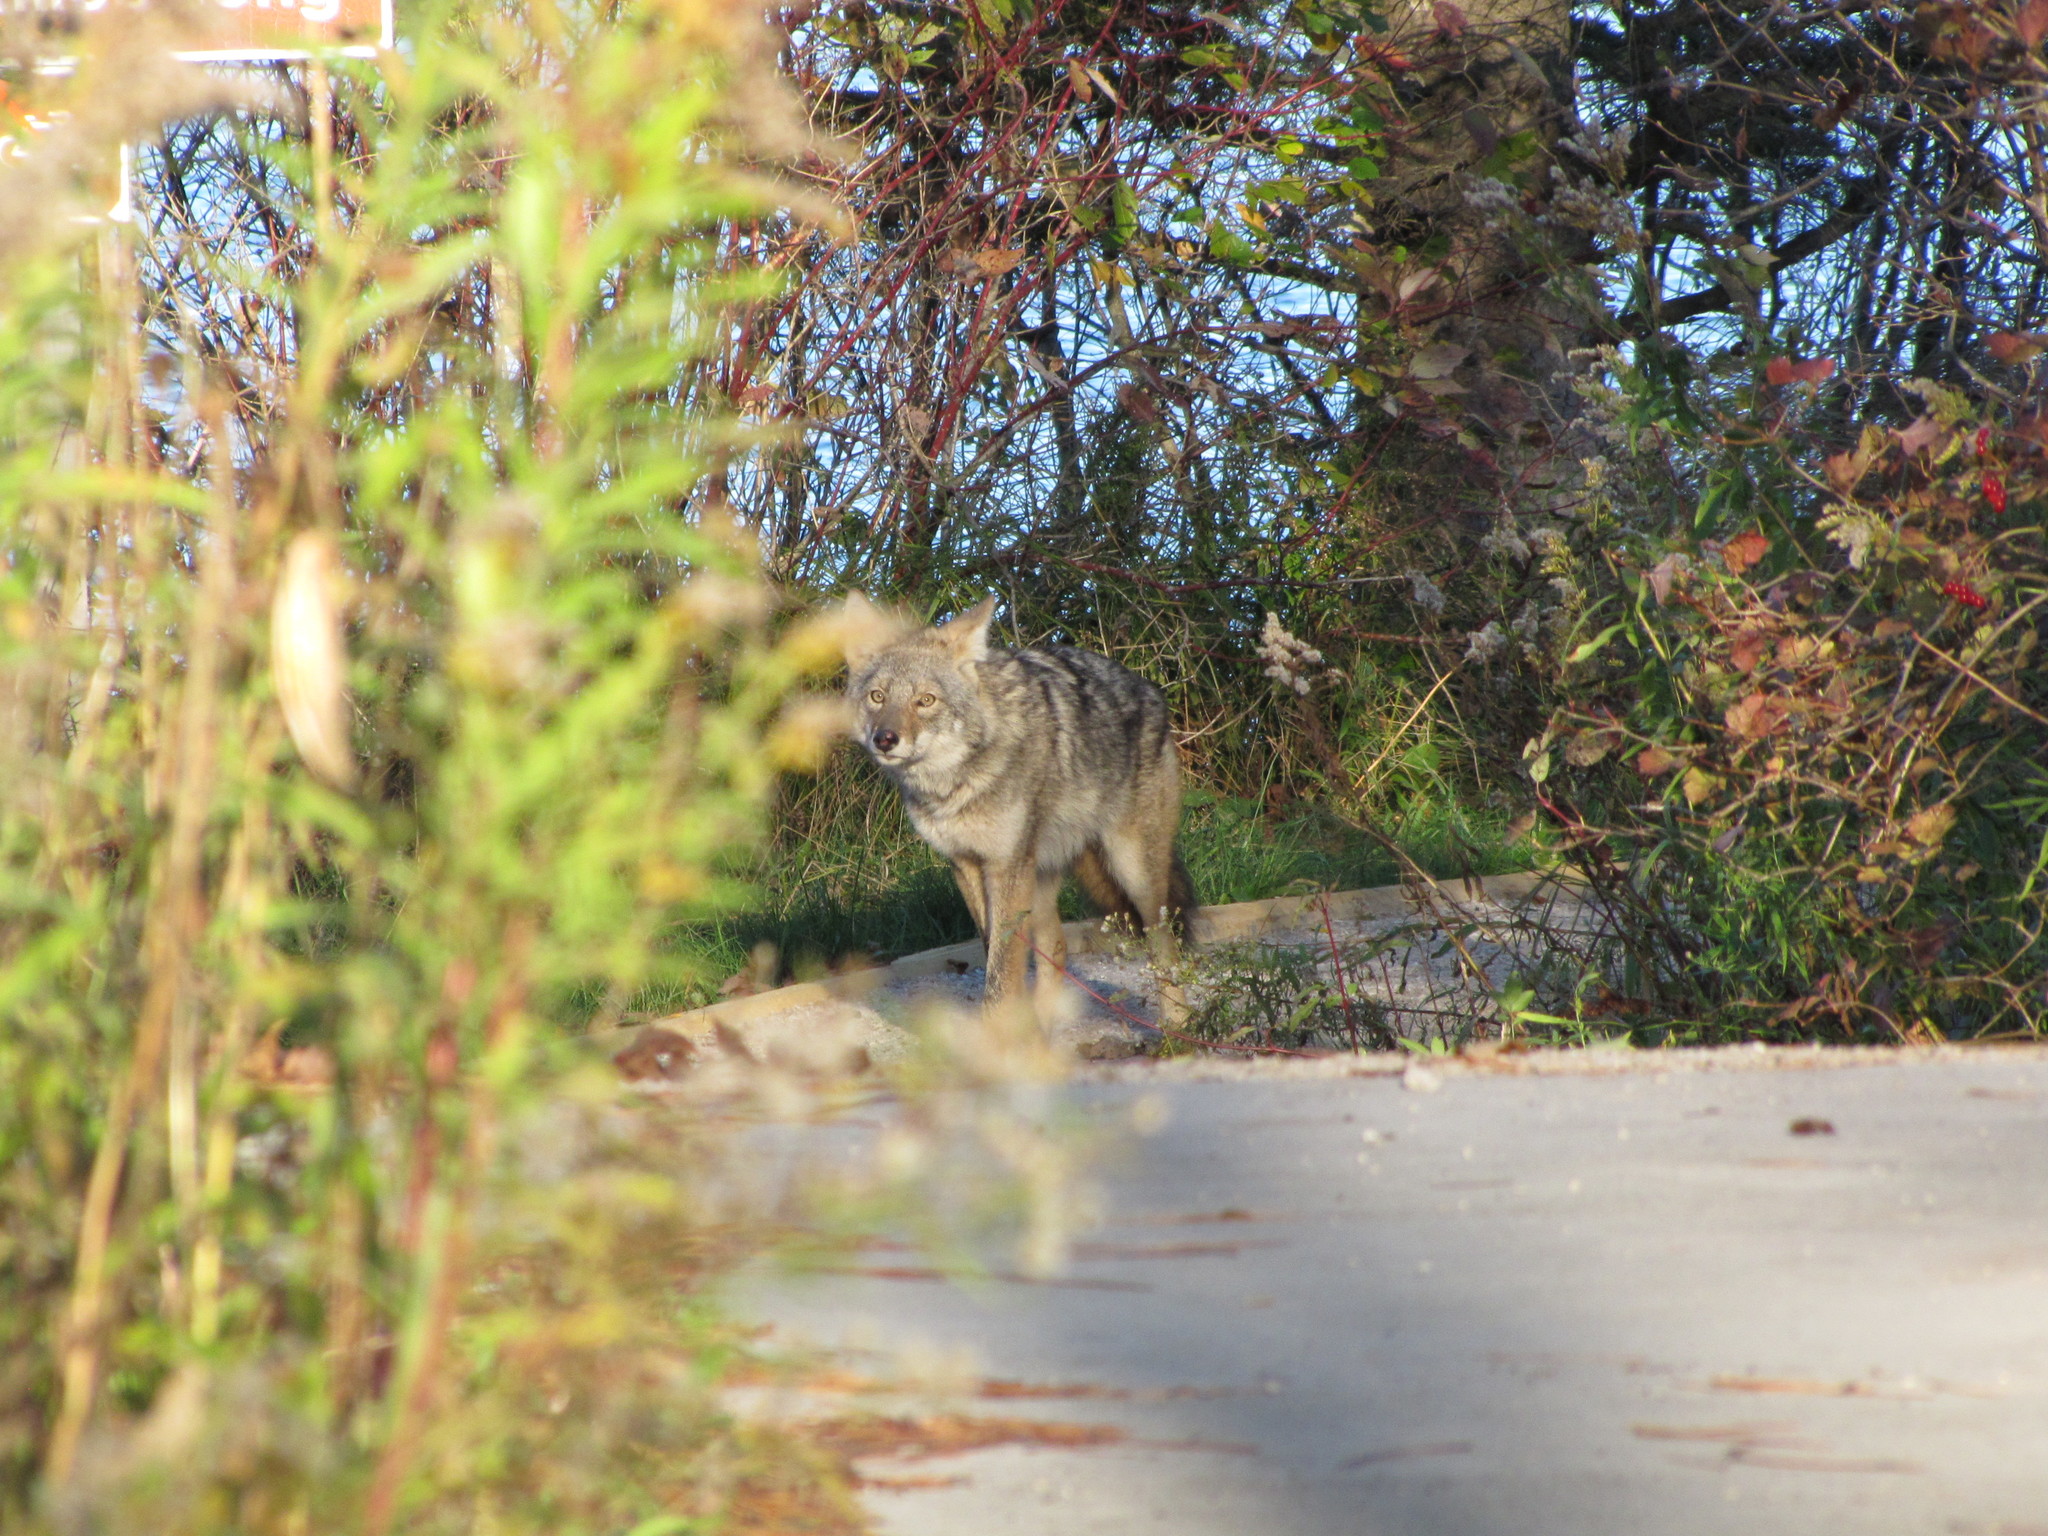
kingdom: Animalia
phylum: Chordata
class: Mammalia
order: Carnivora
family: Canidae
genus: Canis
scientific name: Canis latrans
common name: Coyote
